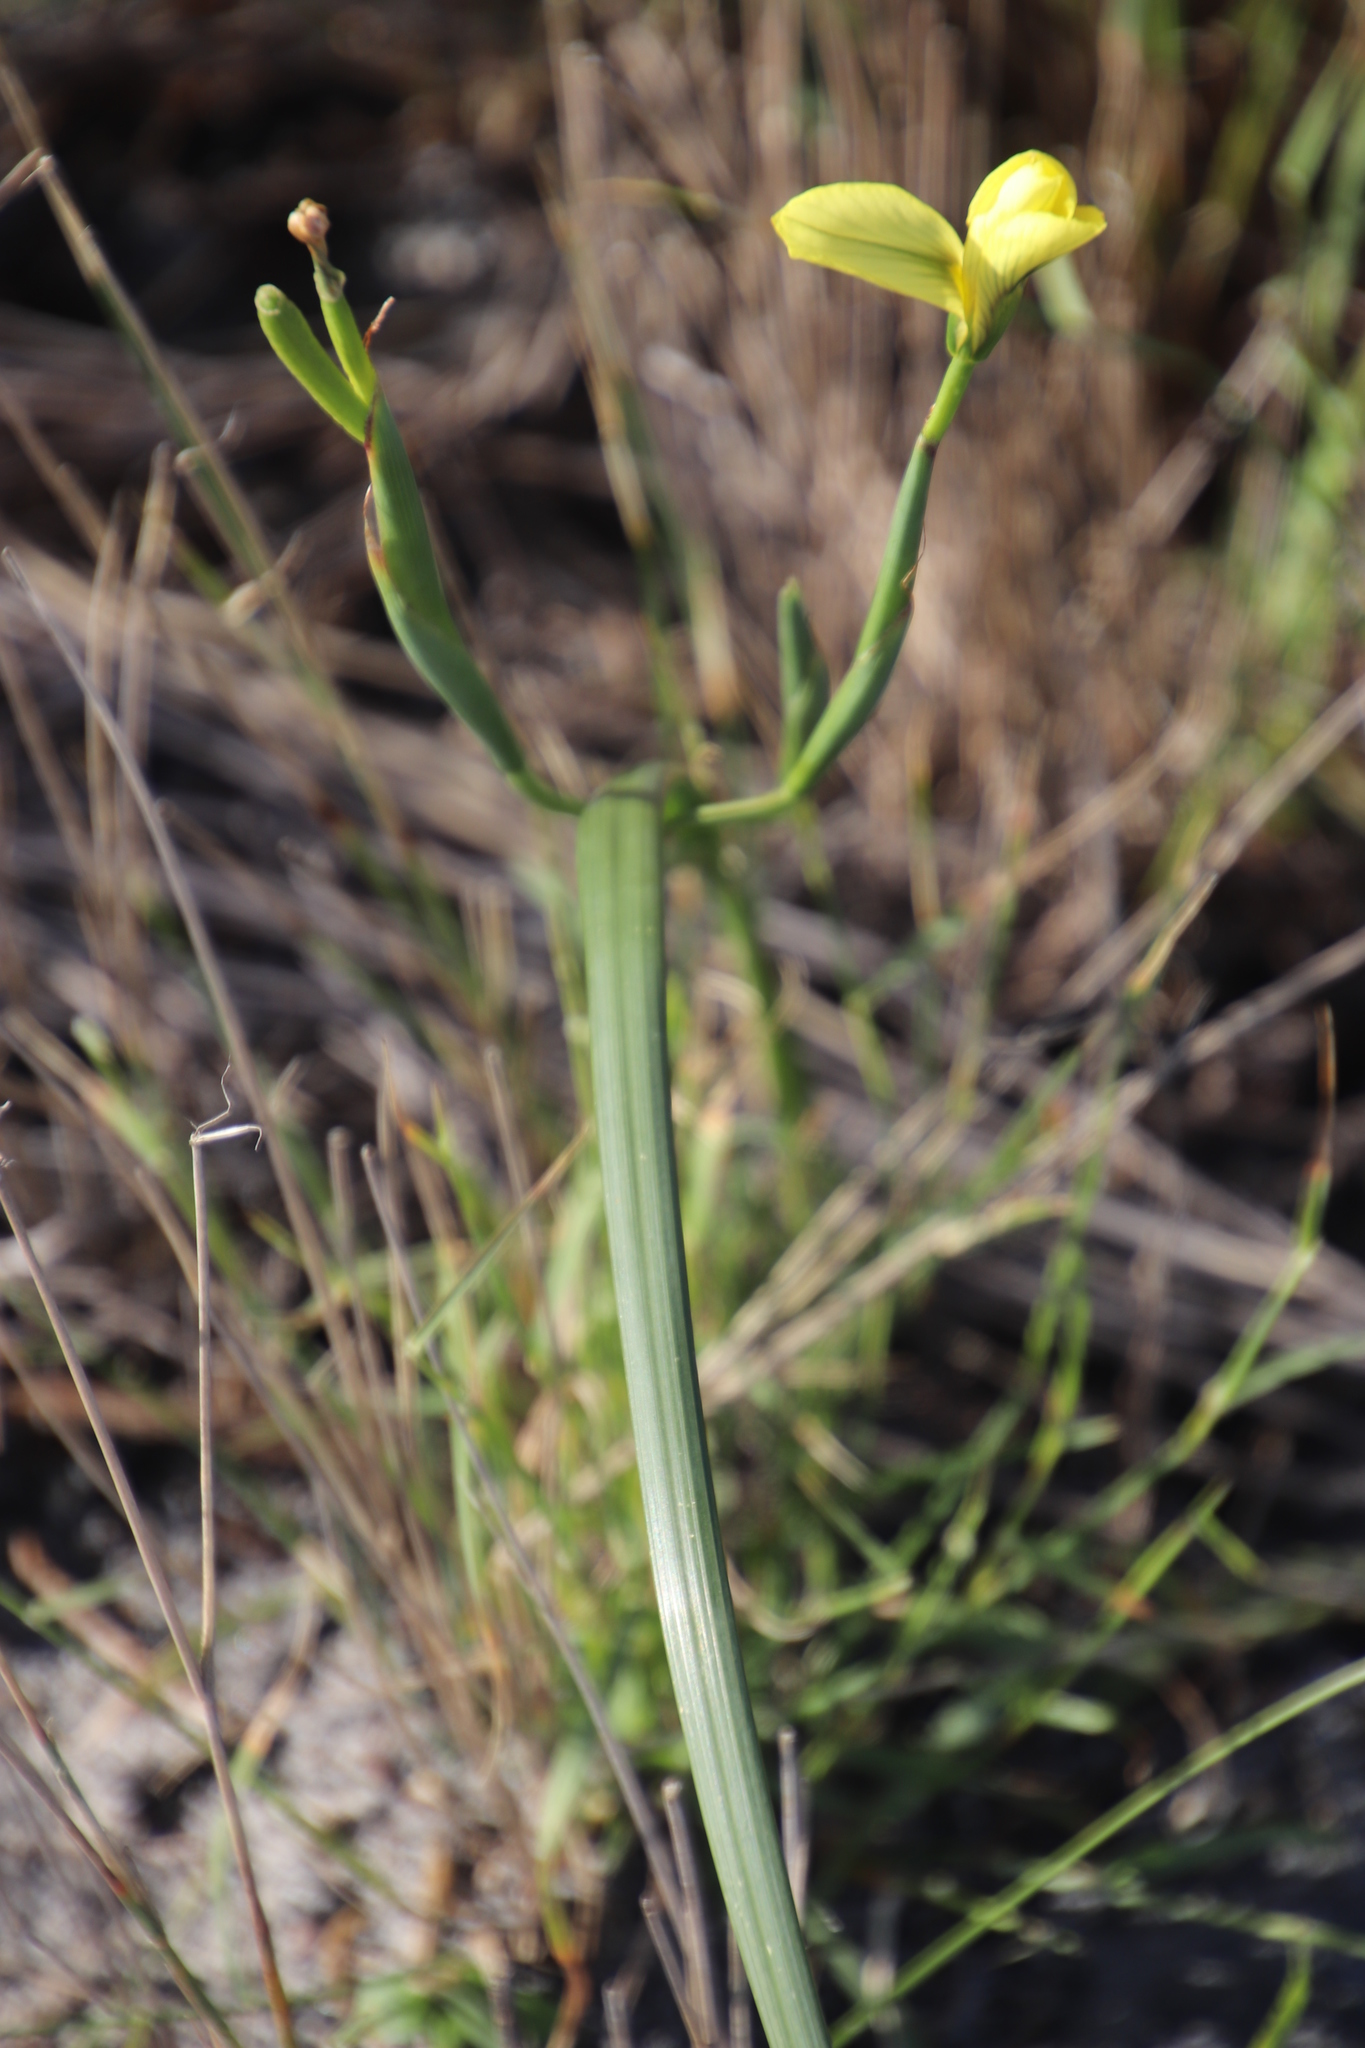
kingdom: Plantae
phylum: Tracheophyta
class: Liliopsida
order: Asparagales
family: Iridaceae
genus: Moraea
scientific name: Moraea collina
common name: Cape-tulip
